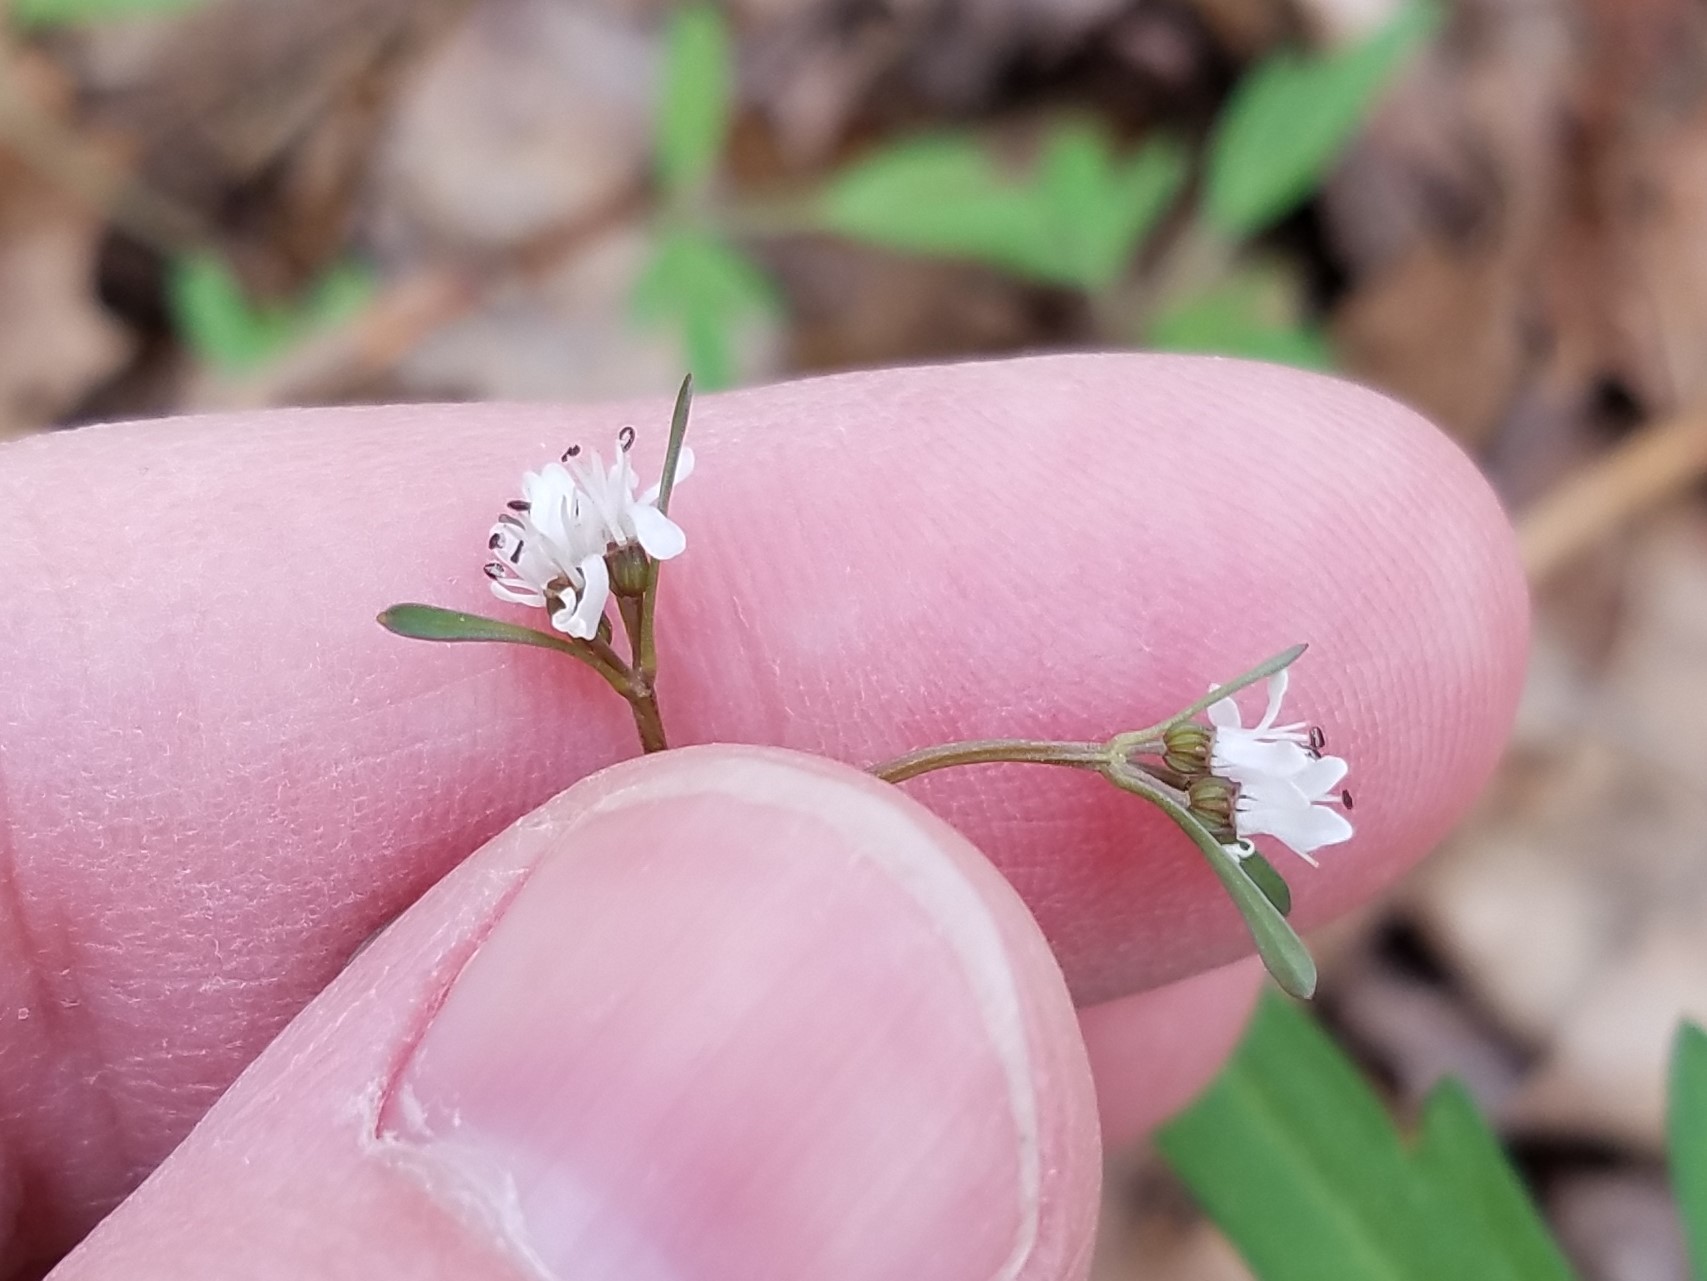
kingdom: Plantae
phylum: Tracheophyta
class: Magnoliopsida
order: Apiales
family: Apiaceae
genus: Erigenia
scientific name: Erigenia bulbosa
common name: Pepper-and-salt
